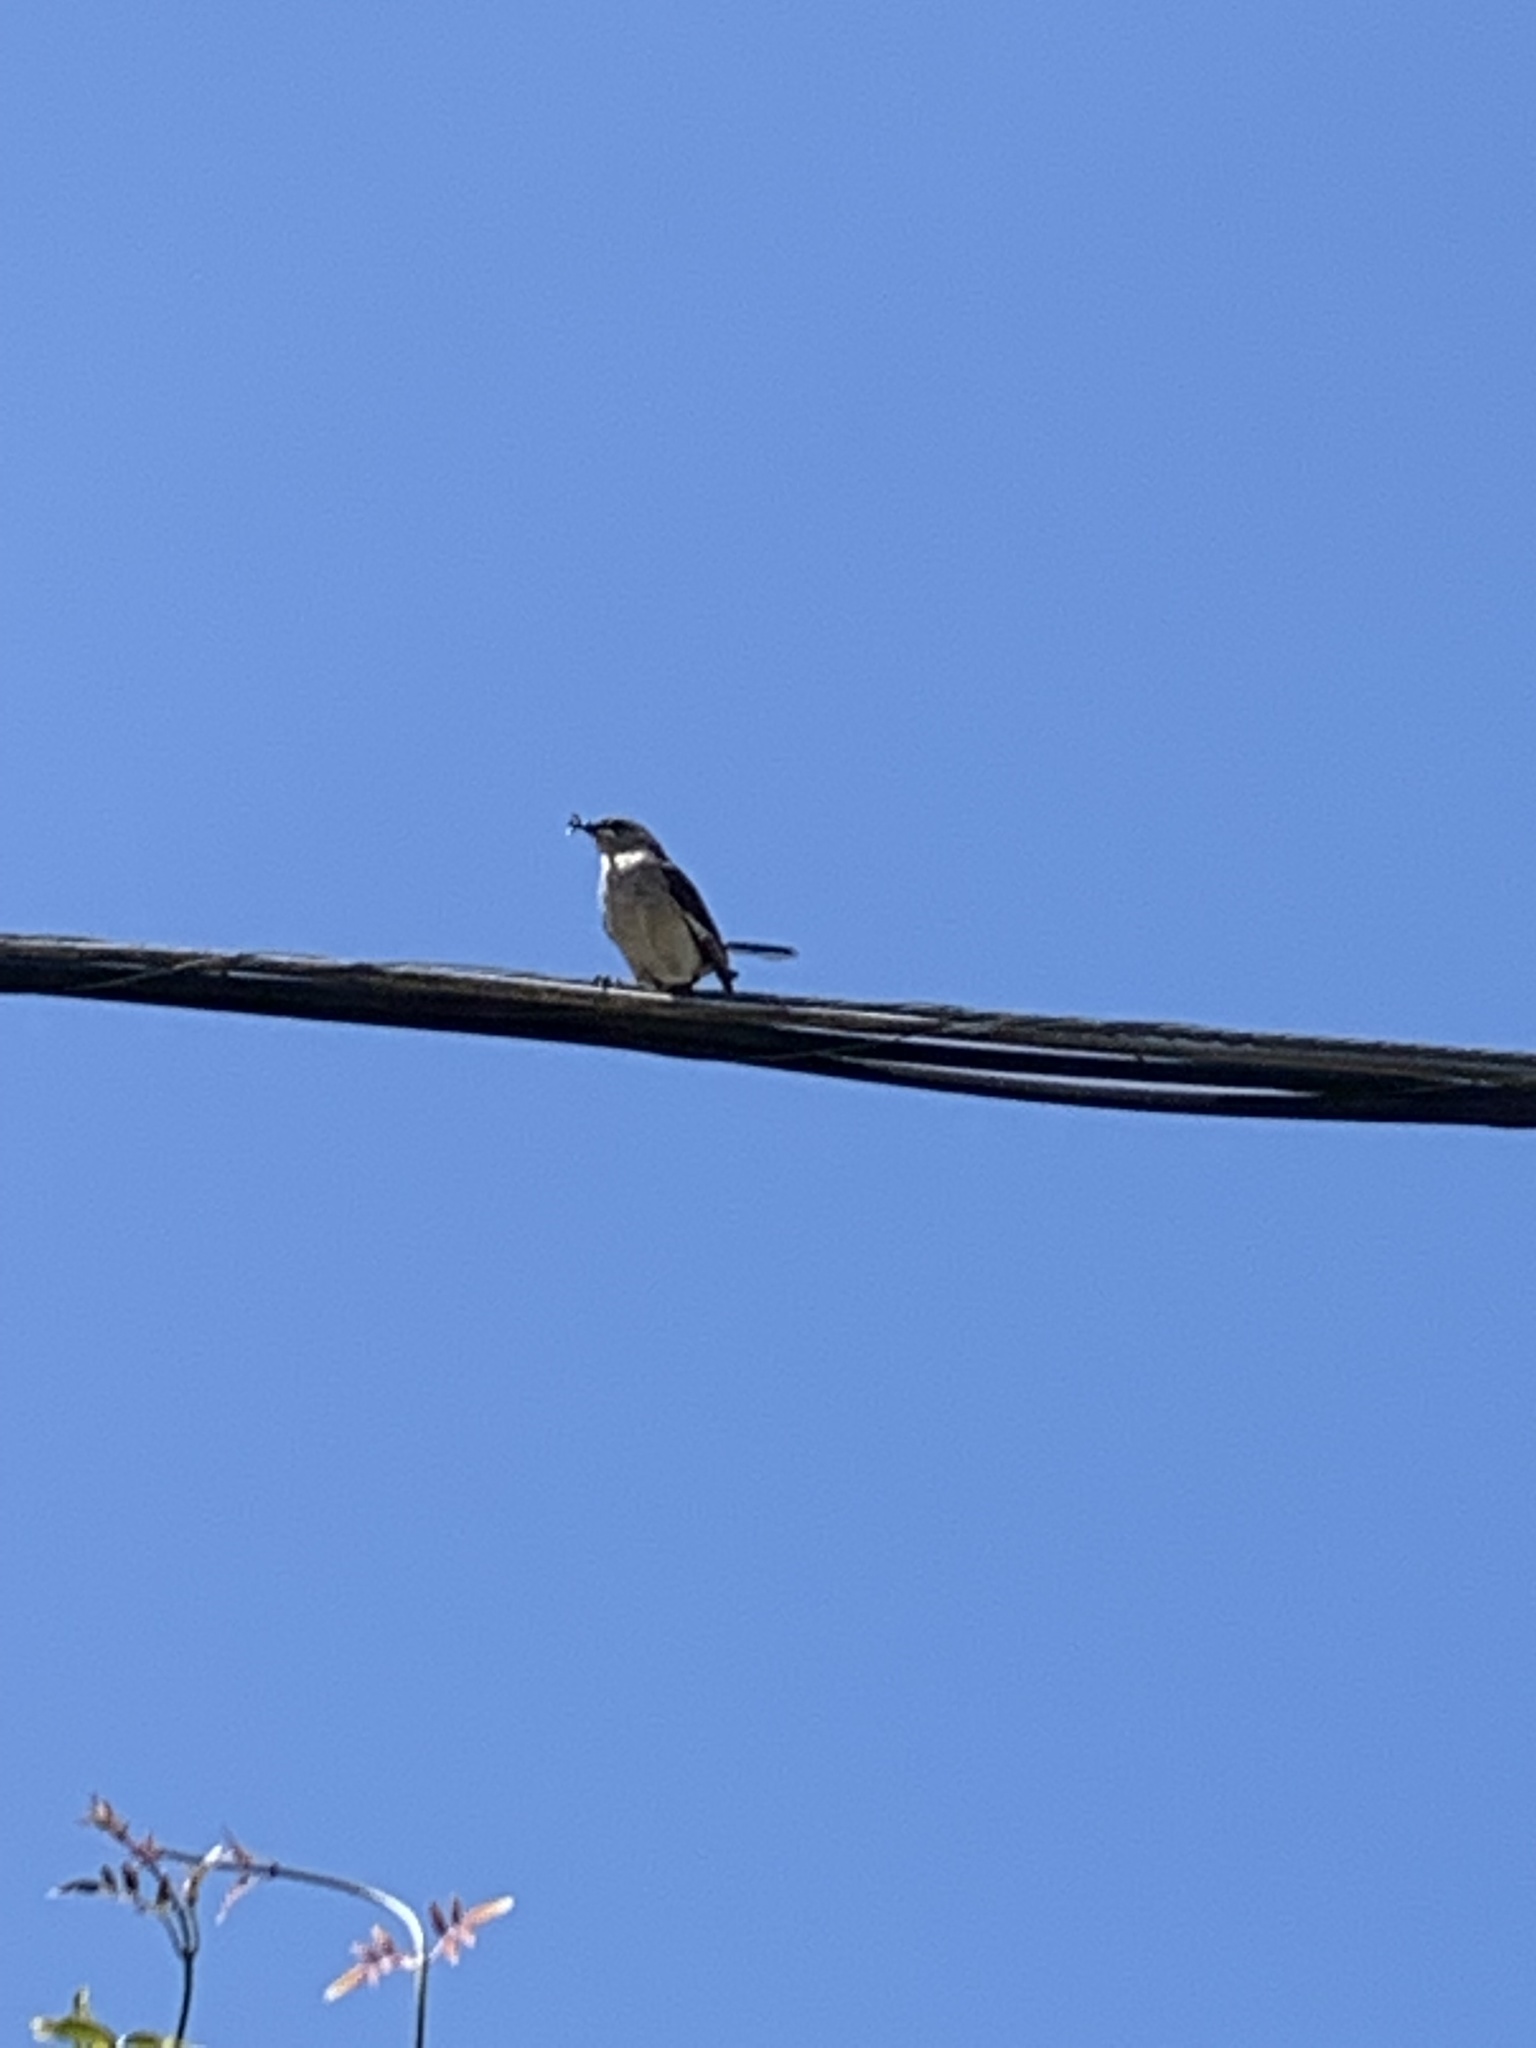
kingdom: Animalia
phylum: Chordata
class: Aves
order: Passeriformes
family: Mimidae
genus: Mimus
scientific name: Mimus polyglottos
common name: Northern mockingbird
